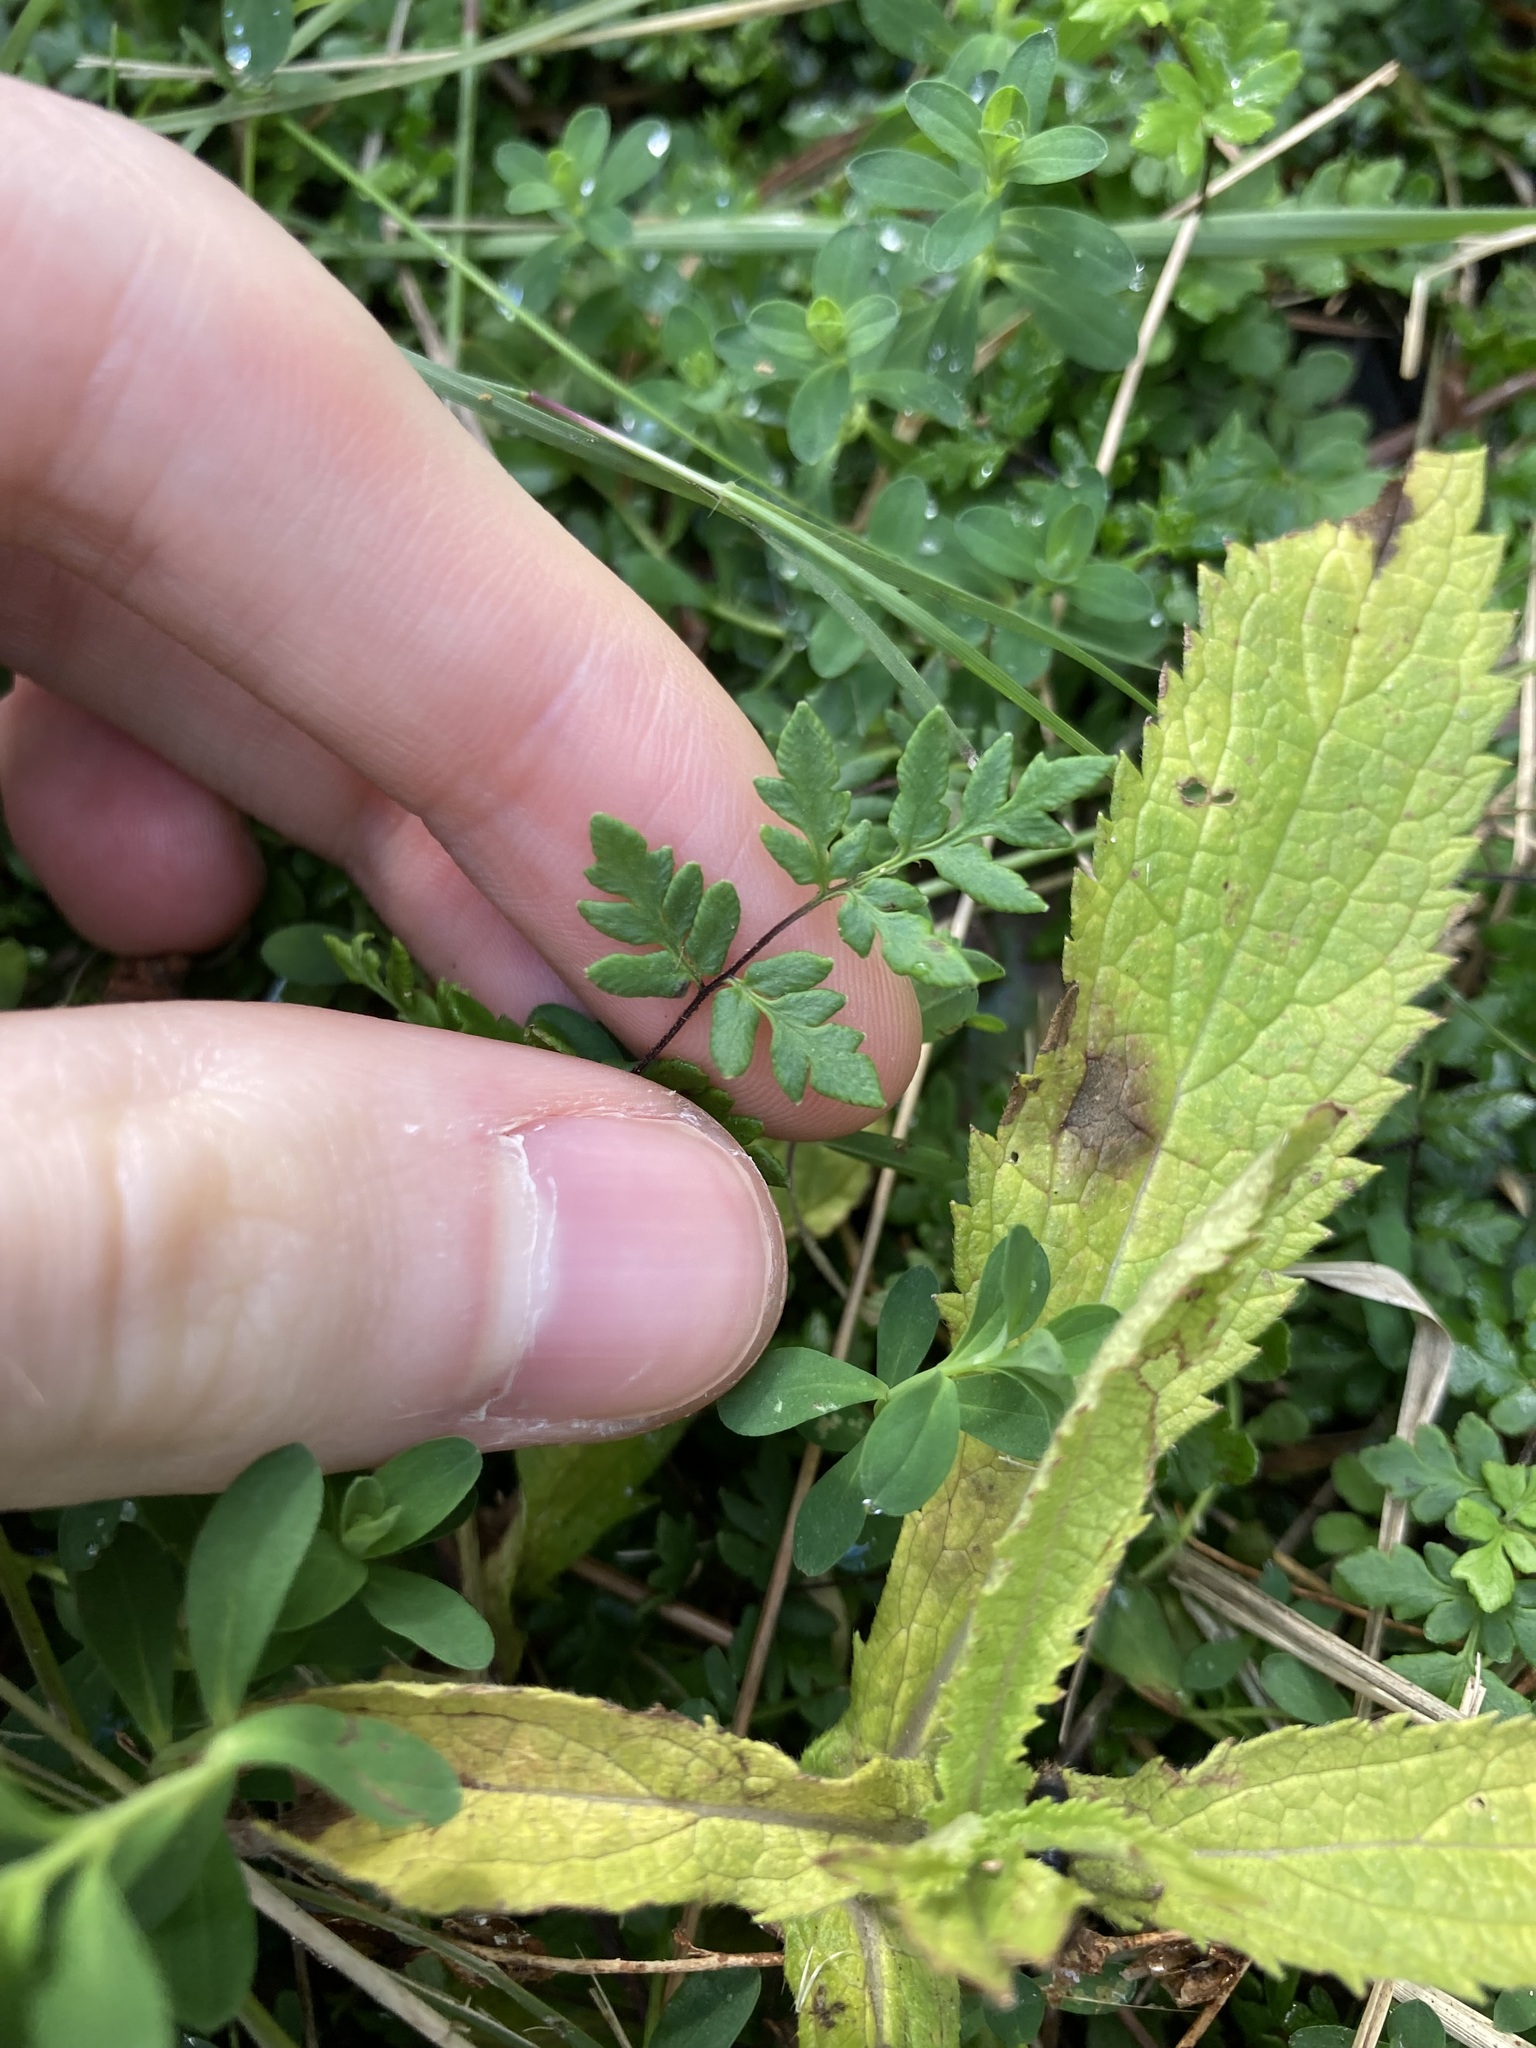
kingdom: Plantae
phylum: Tracheophyta
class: Polypodiopsida
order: Polypodiales
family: Pteridaceae
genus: Cheilanthes
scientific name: Cheilanthes sieberi
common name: Mulga fern
